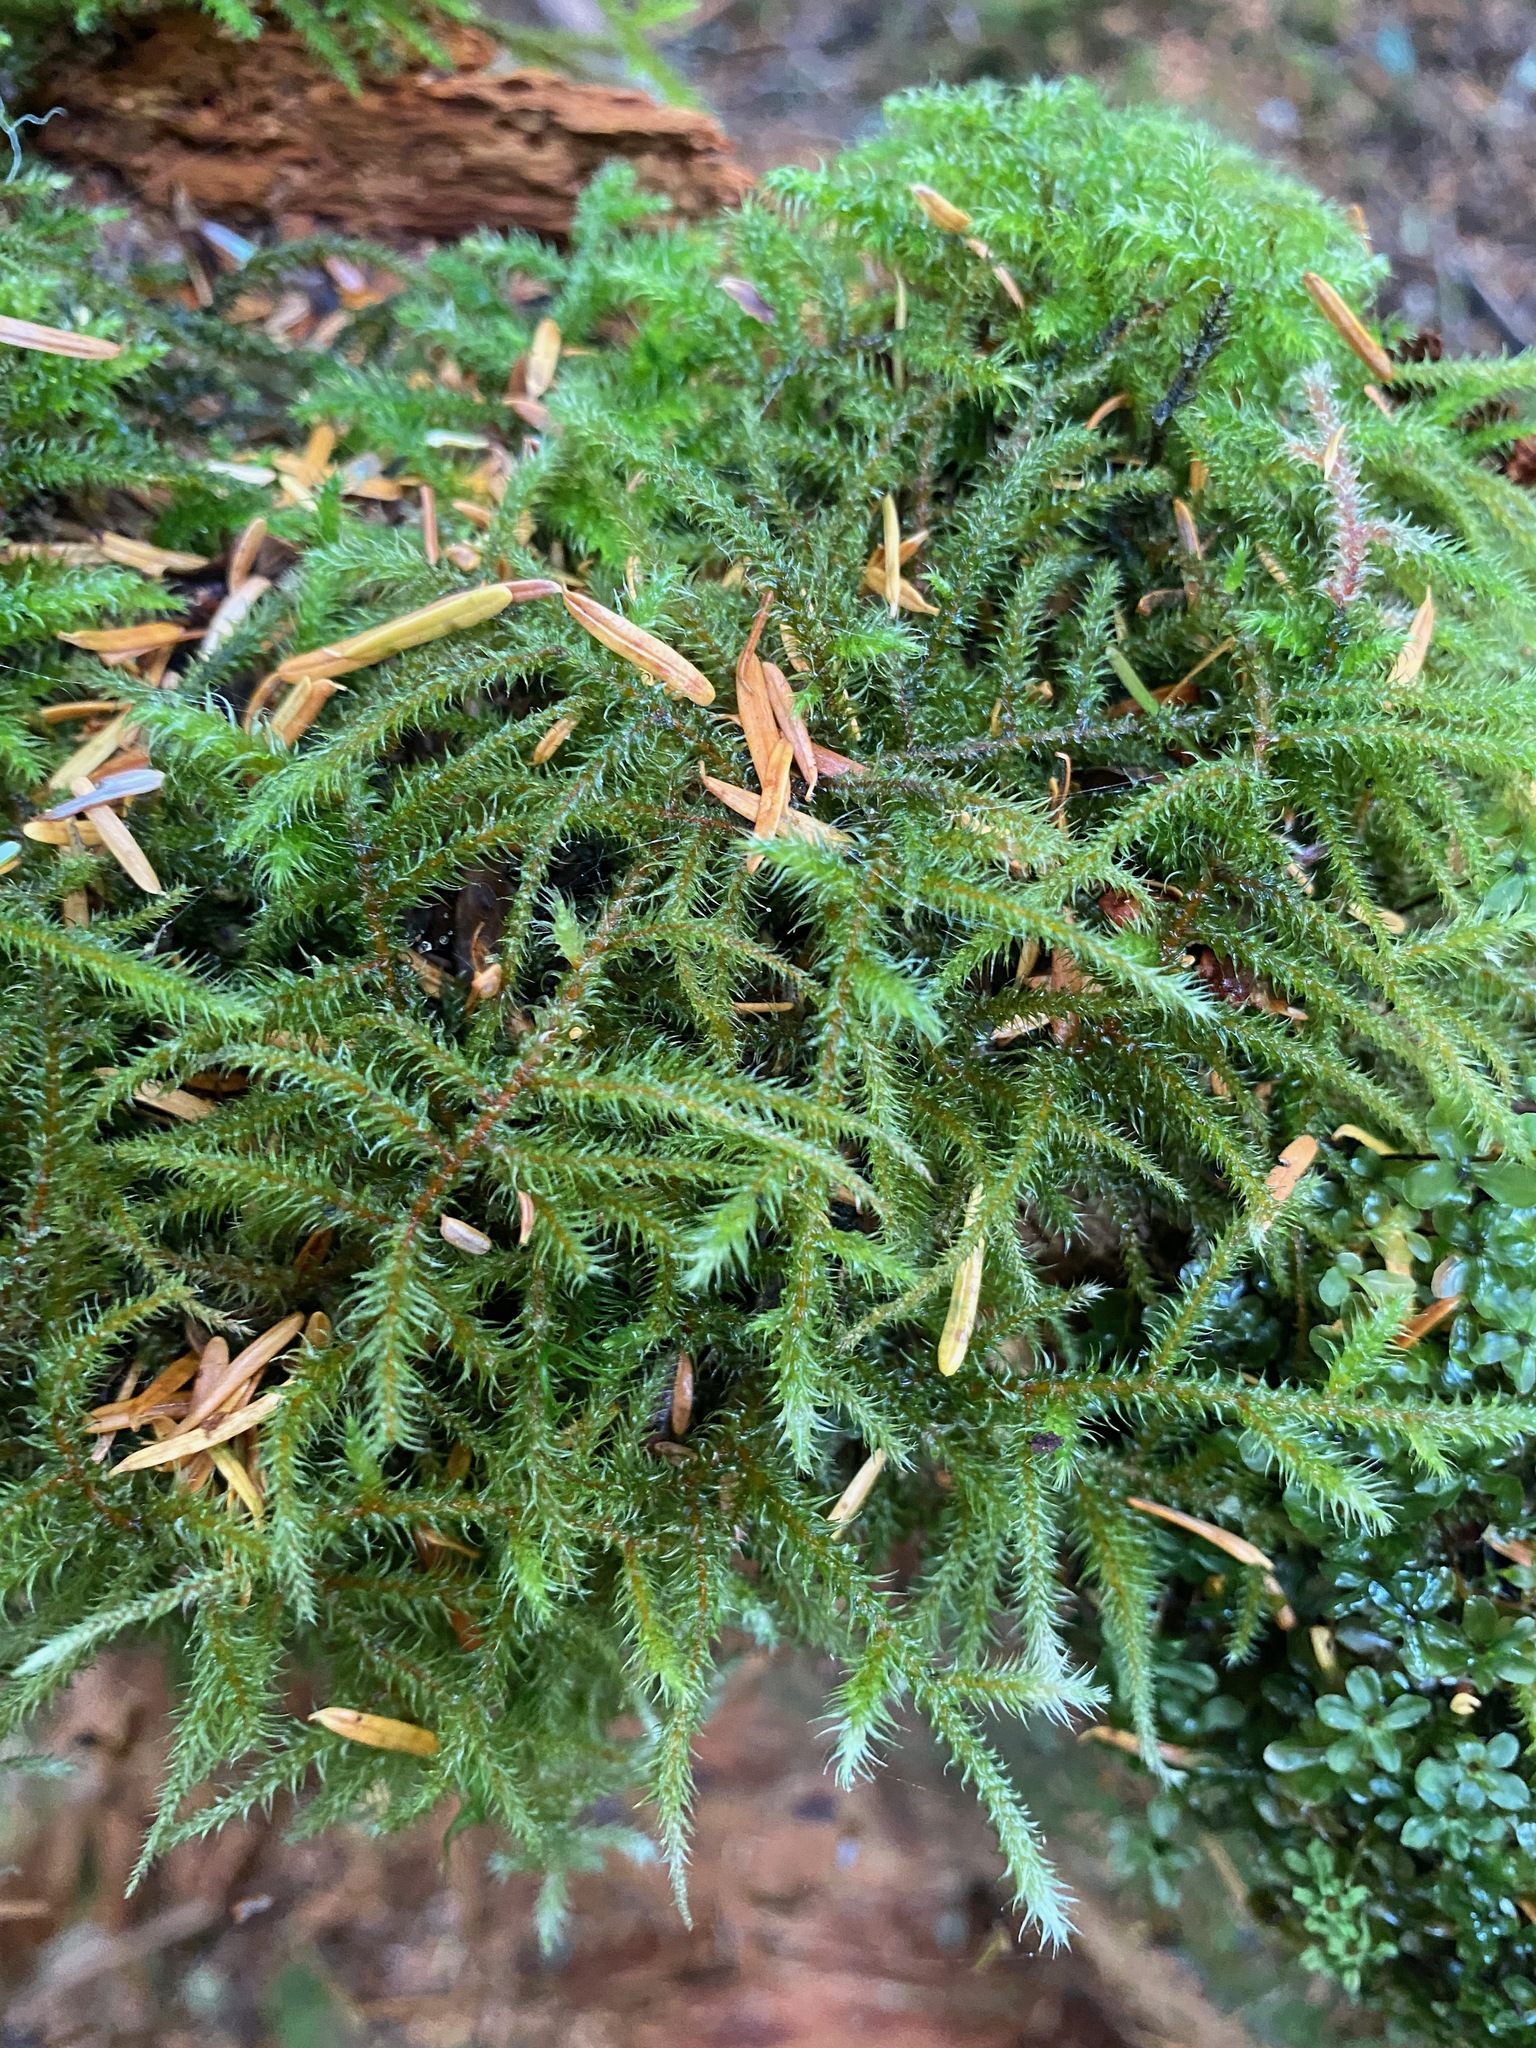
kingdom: Plantae
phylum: Bryophyta
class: Bryopsida
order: Hypnales
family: Hylocomiaceae
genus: Rhytidiadelphus
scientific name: Rhytidiadelphus loreus
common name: Lanky moss
